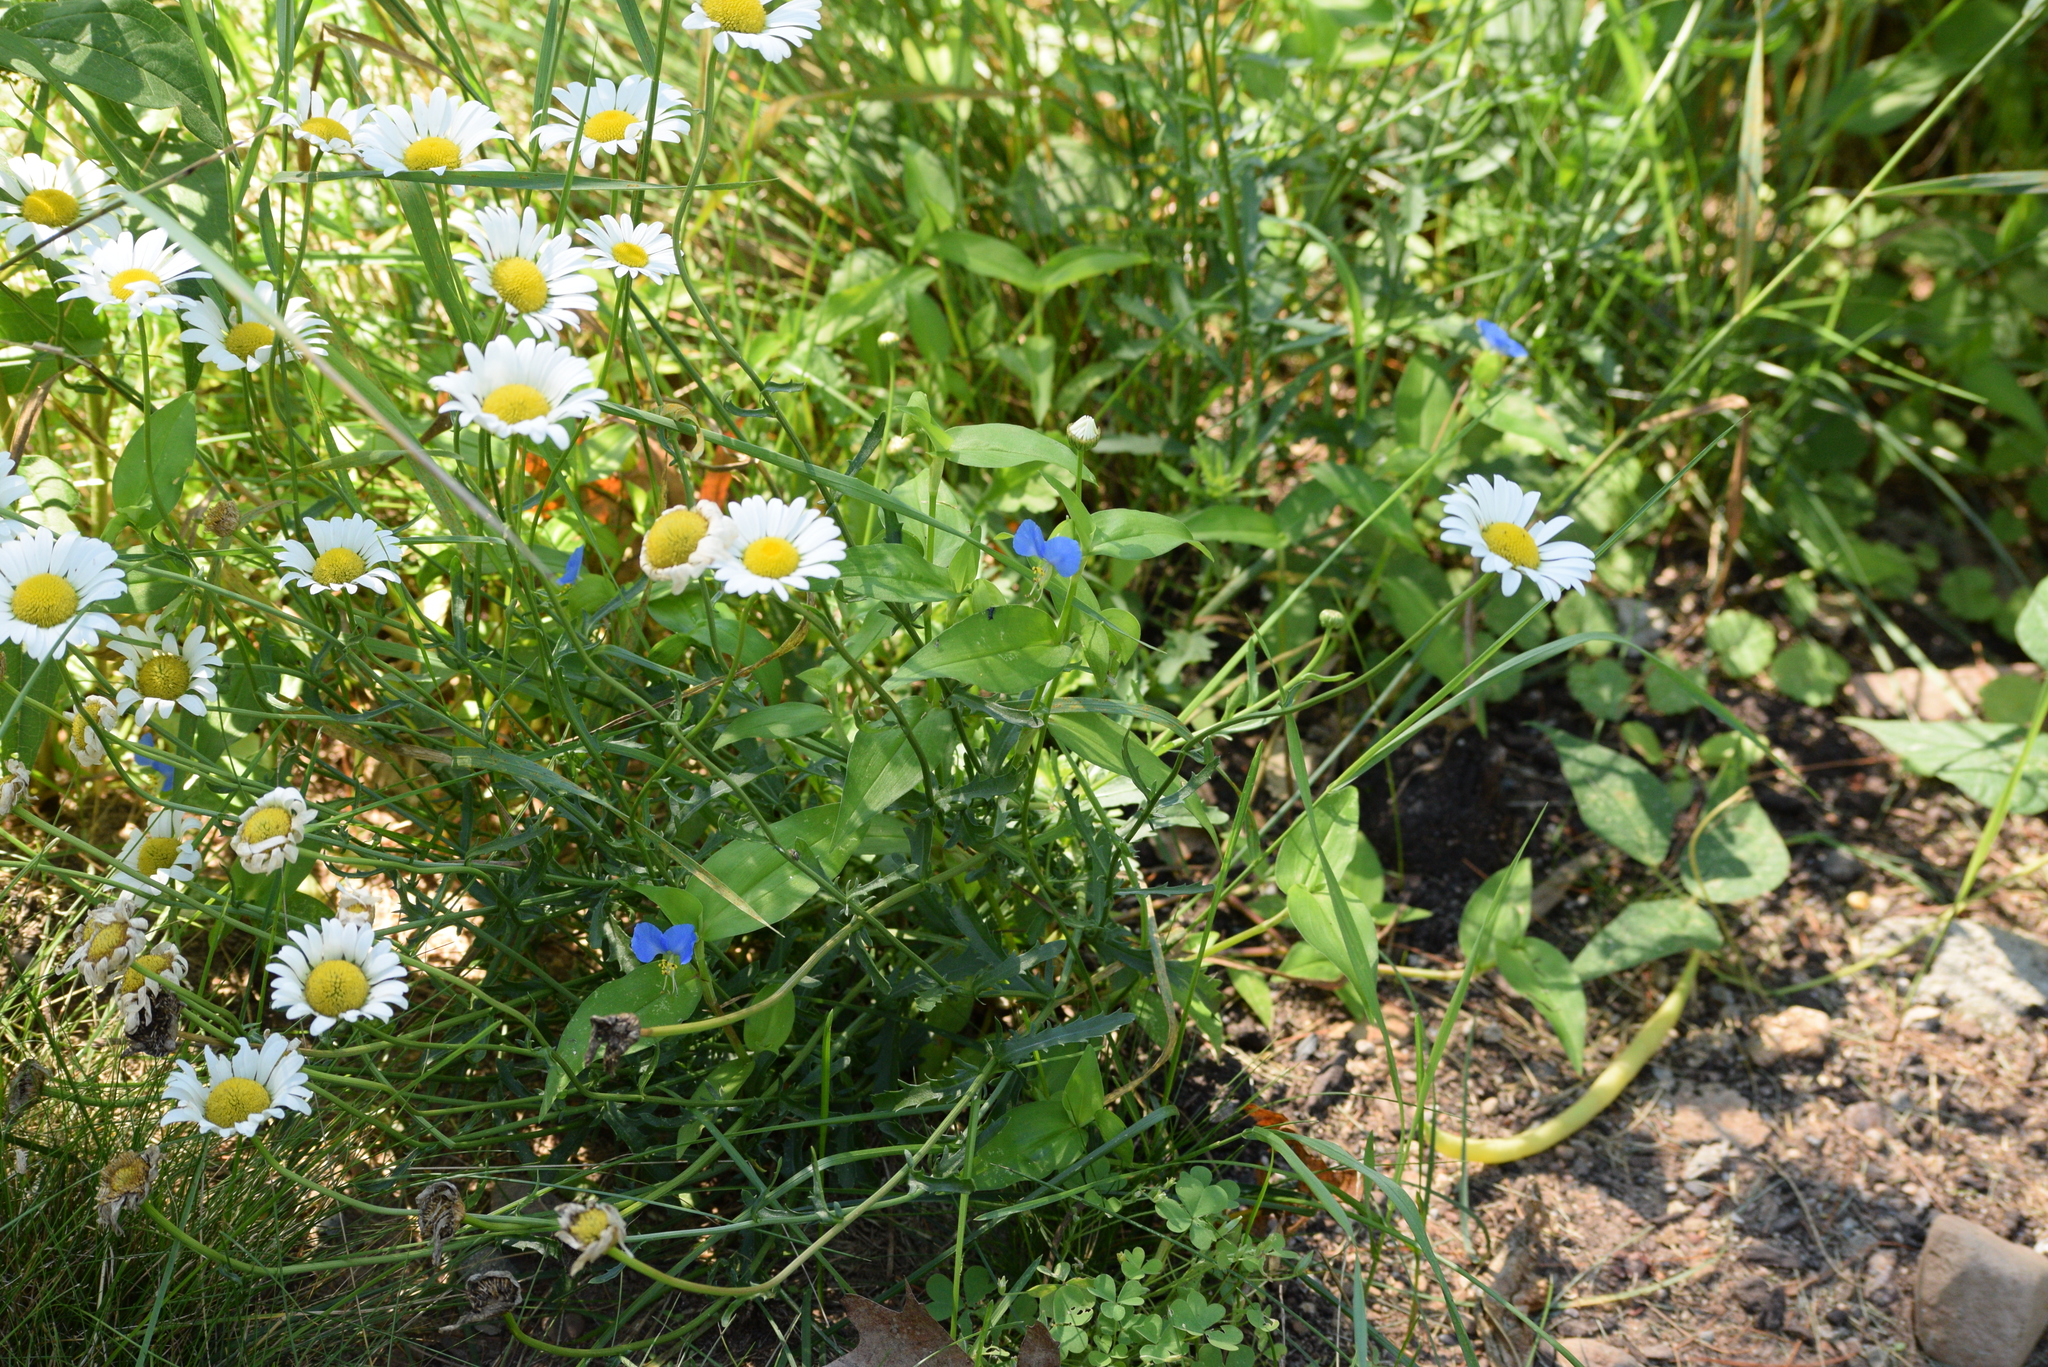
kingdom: Plantae
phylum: Tracheophyta
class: Liliopsida
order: Commelinales
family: Commelinaceae
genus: Commelina
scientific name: Commelina communis
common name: Asiatic dayflower
